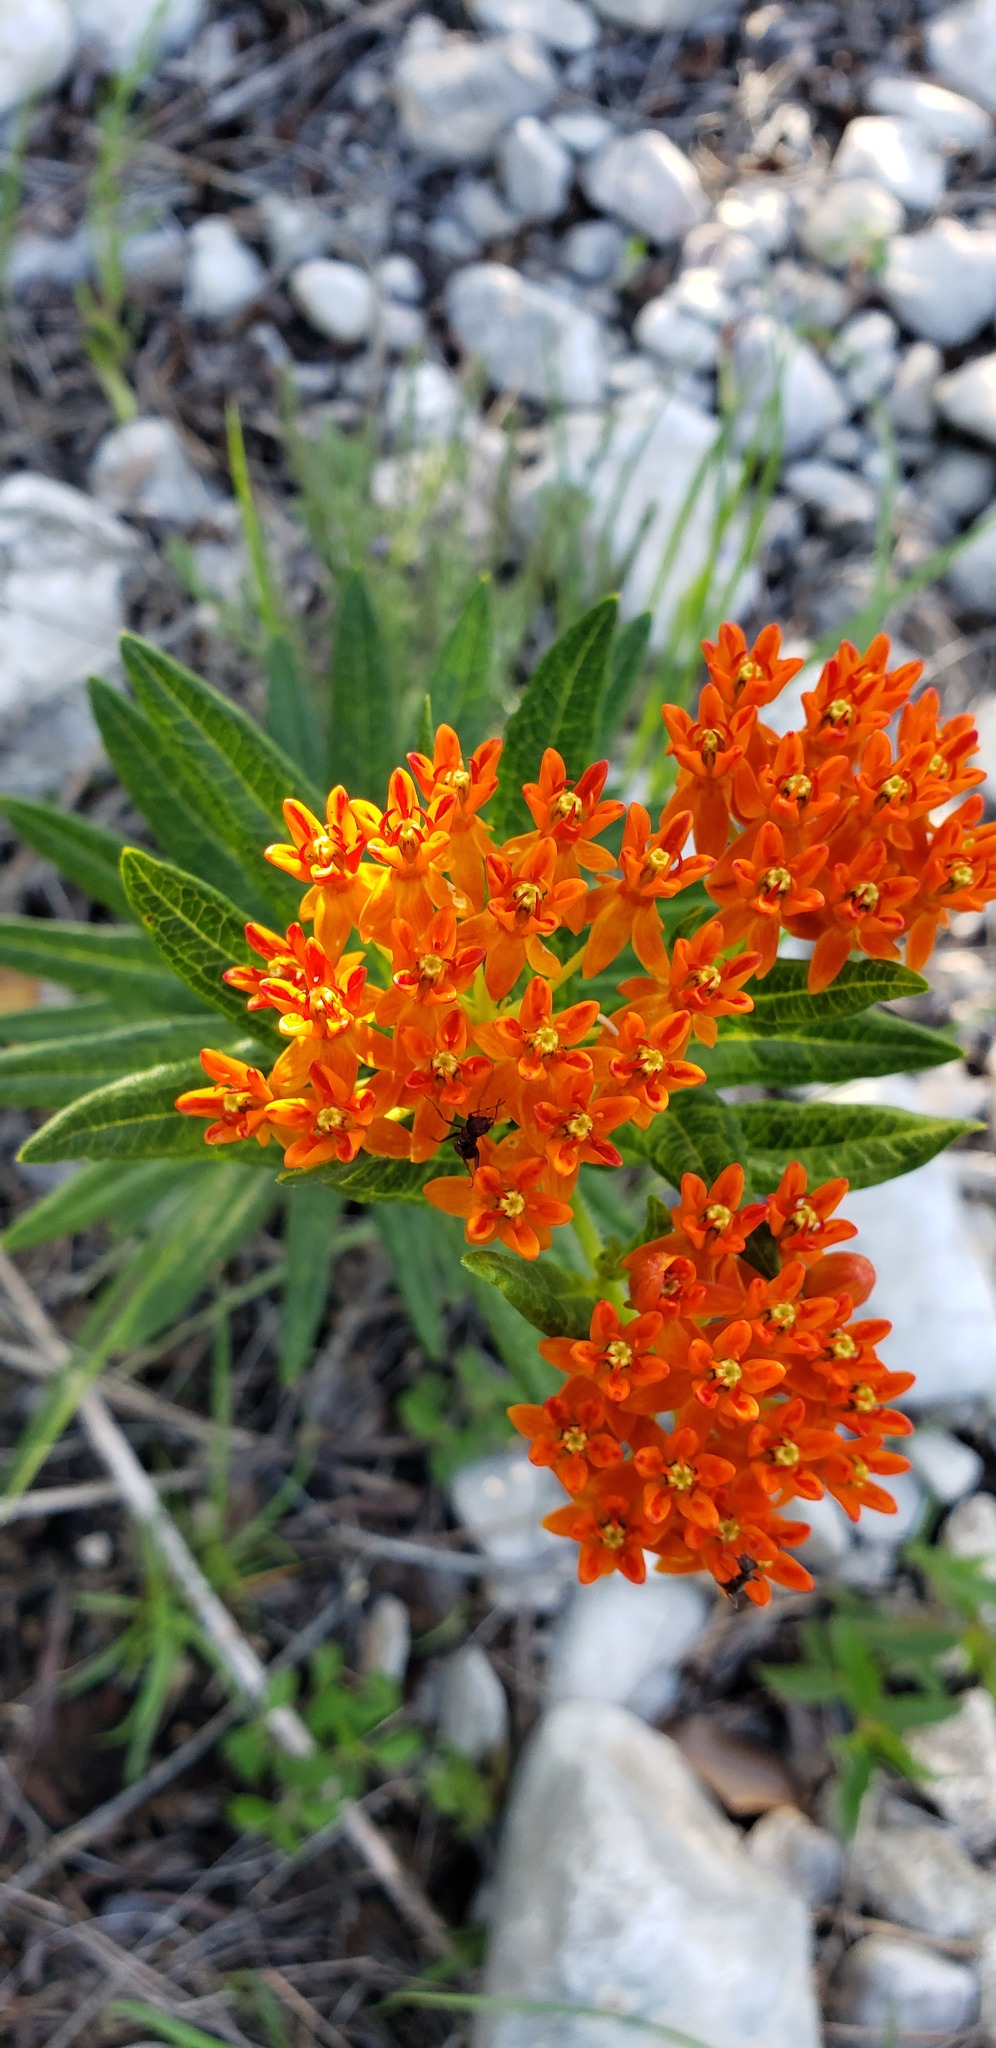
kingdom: Plantae
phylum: Tracheophyta
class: Magnoliopsida
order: Gentianales
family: Apocynaceae
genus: Asclepias
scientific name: Asclepias tuberosa
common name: Butterfly milkweed
